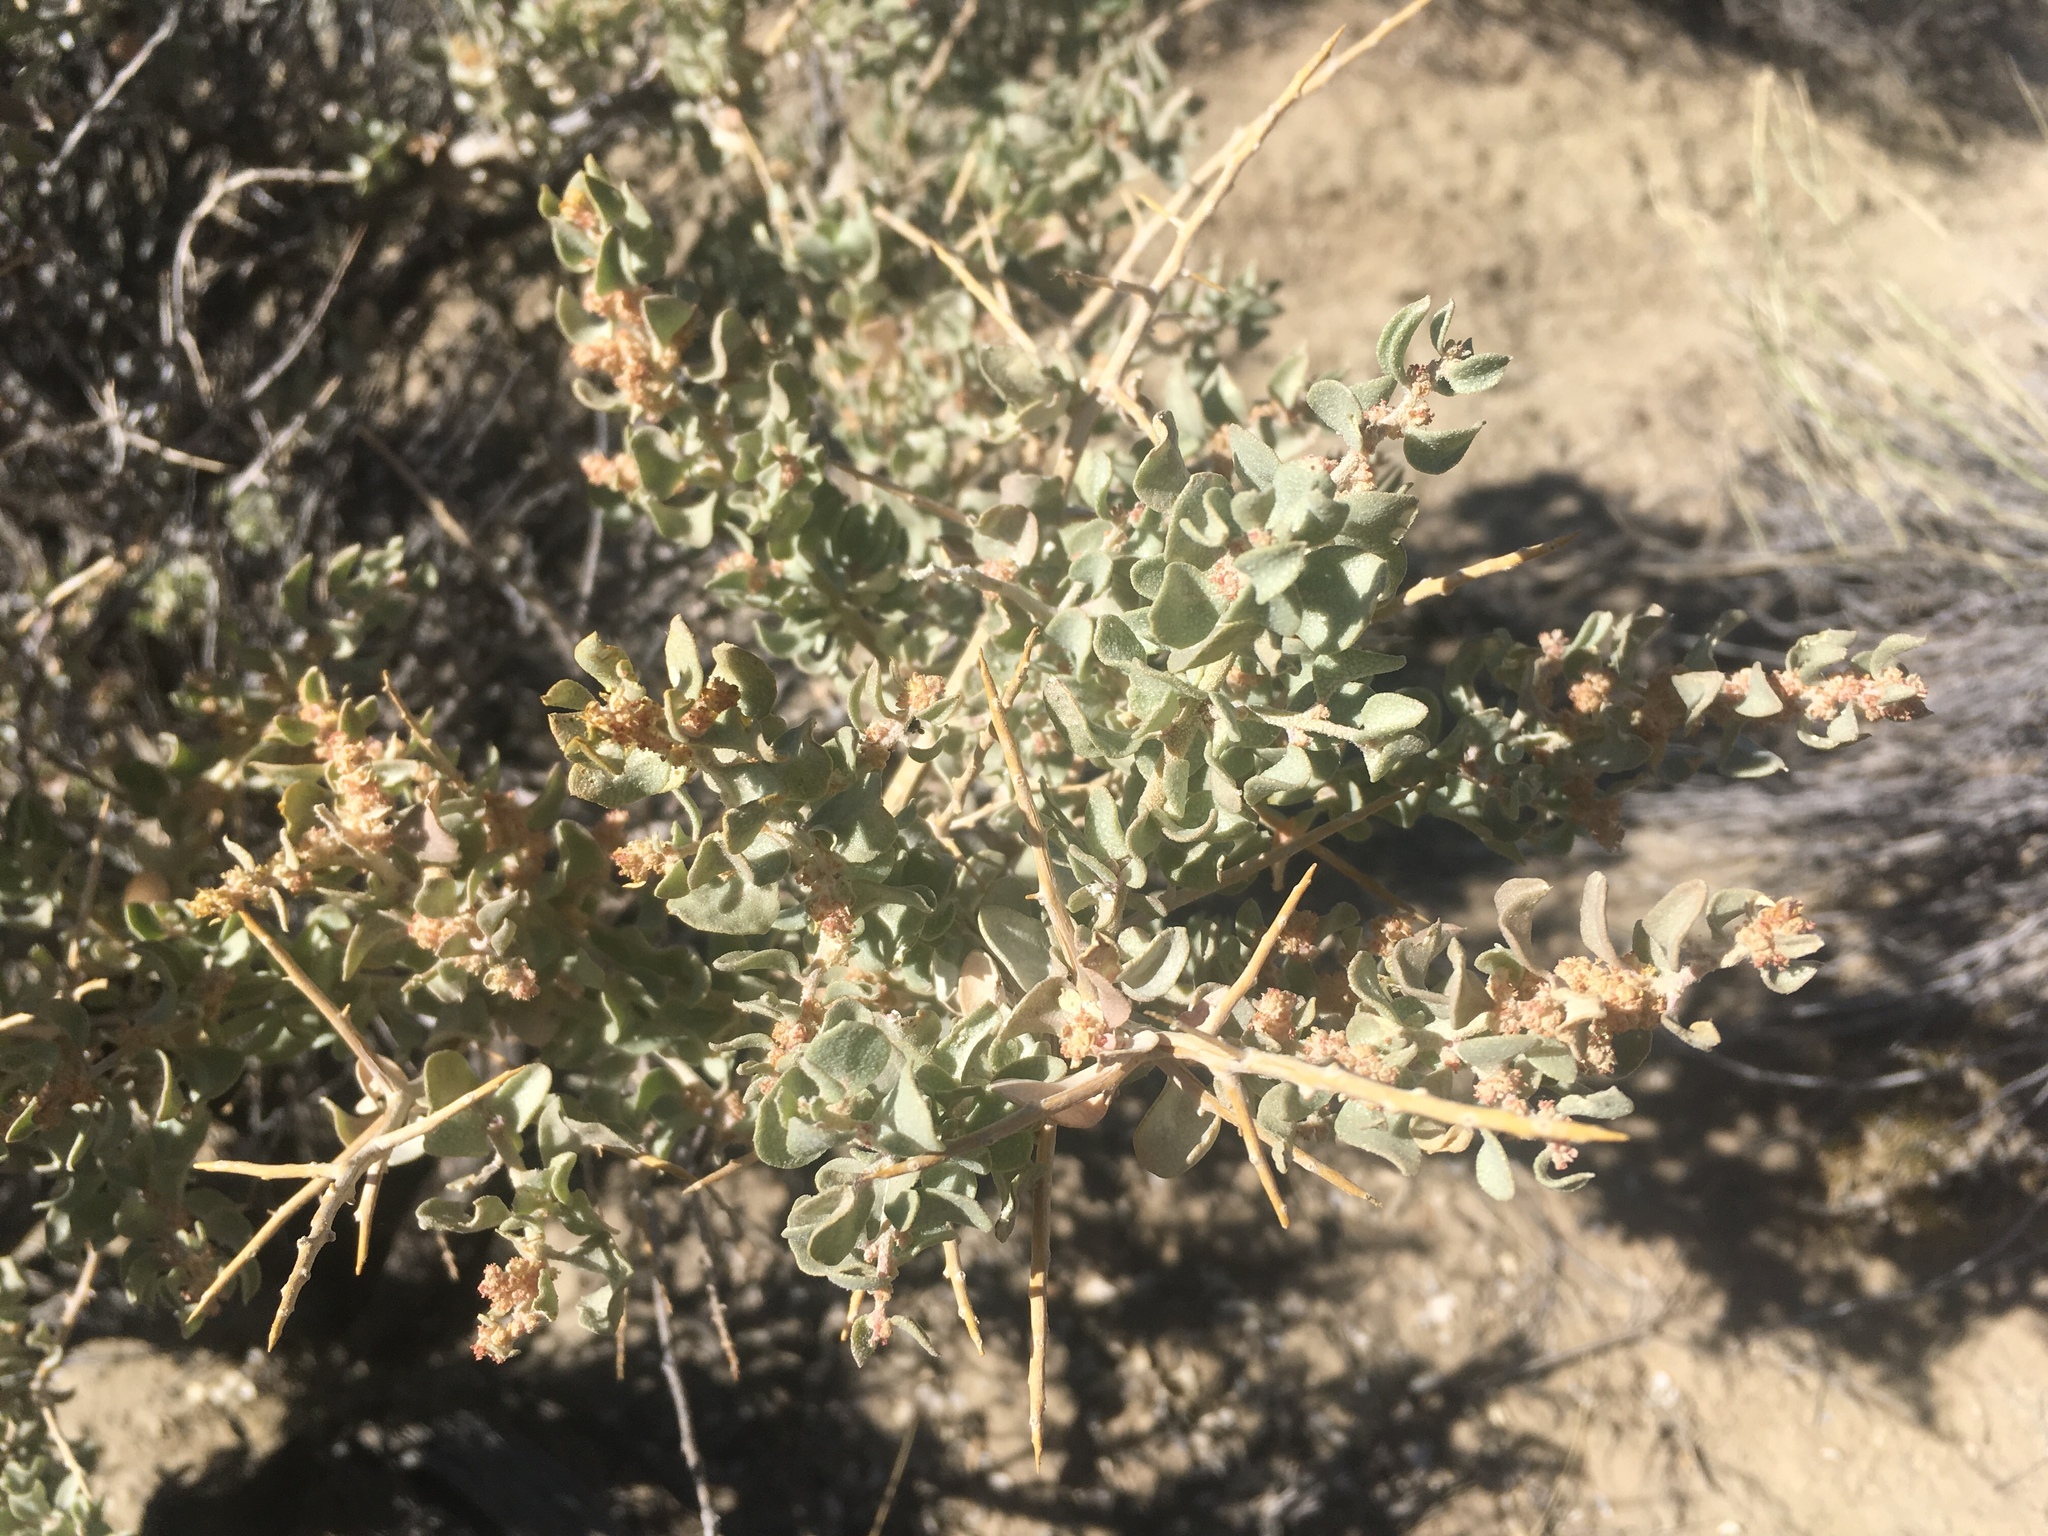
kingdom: Plantae
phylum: Tracheophyta
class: Magnoliopsida
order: Caryophyllales
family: Amaranthaceae
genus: Atriplex
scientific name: Atriplex confertifolia
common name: Shadscale
